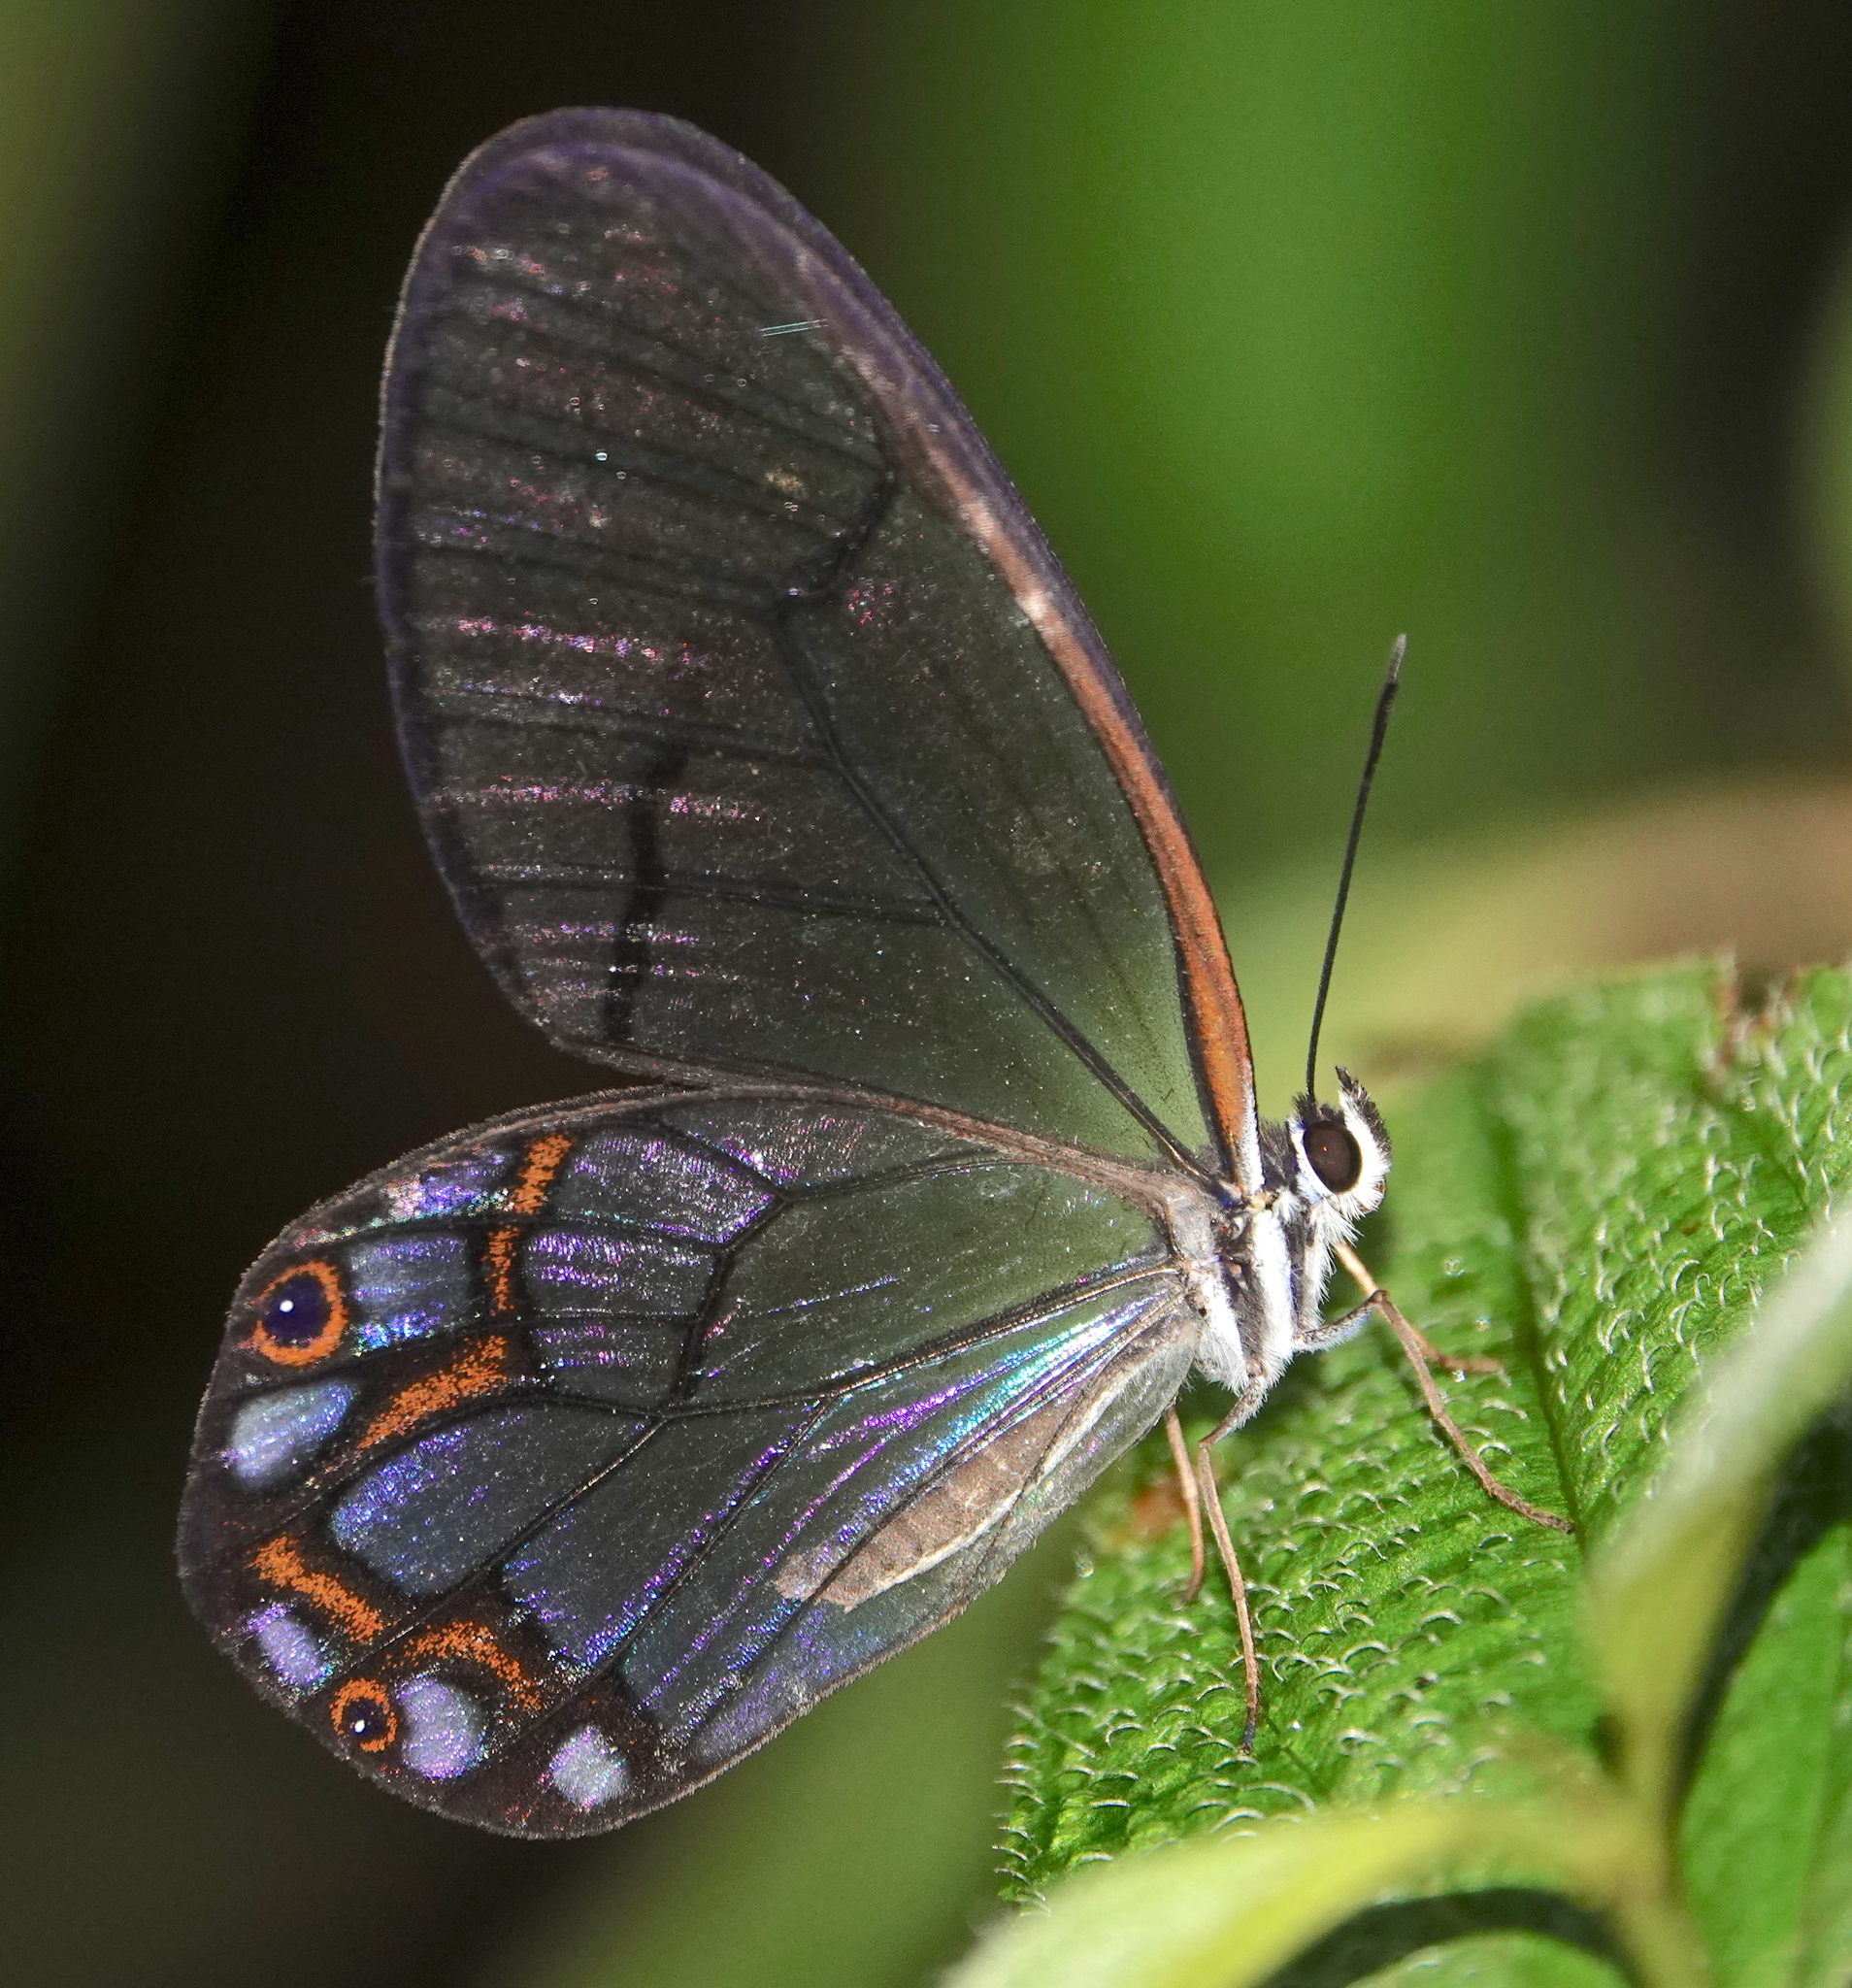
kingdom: Animalia
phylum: Arthropoda
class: Insecta
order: Lepidoptera
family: Nymphalidae
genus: Pseudohaetera
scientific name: Pseudohaetera hypaesia
